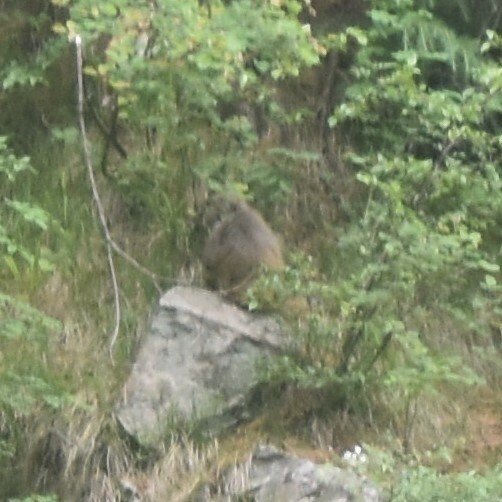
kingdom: Animalia
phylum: Chordata
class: Mammalia
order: Primates
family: Cercopithecidae
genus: Macaca
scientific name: Macaca mulatta
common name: Rhesus monkey
